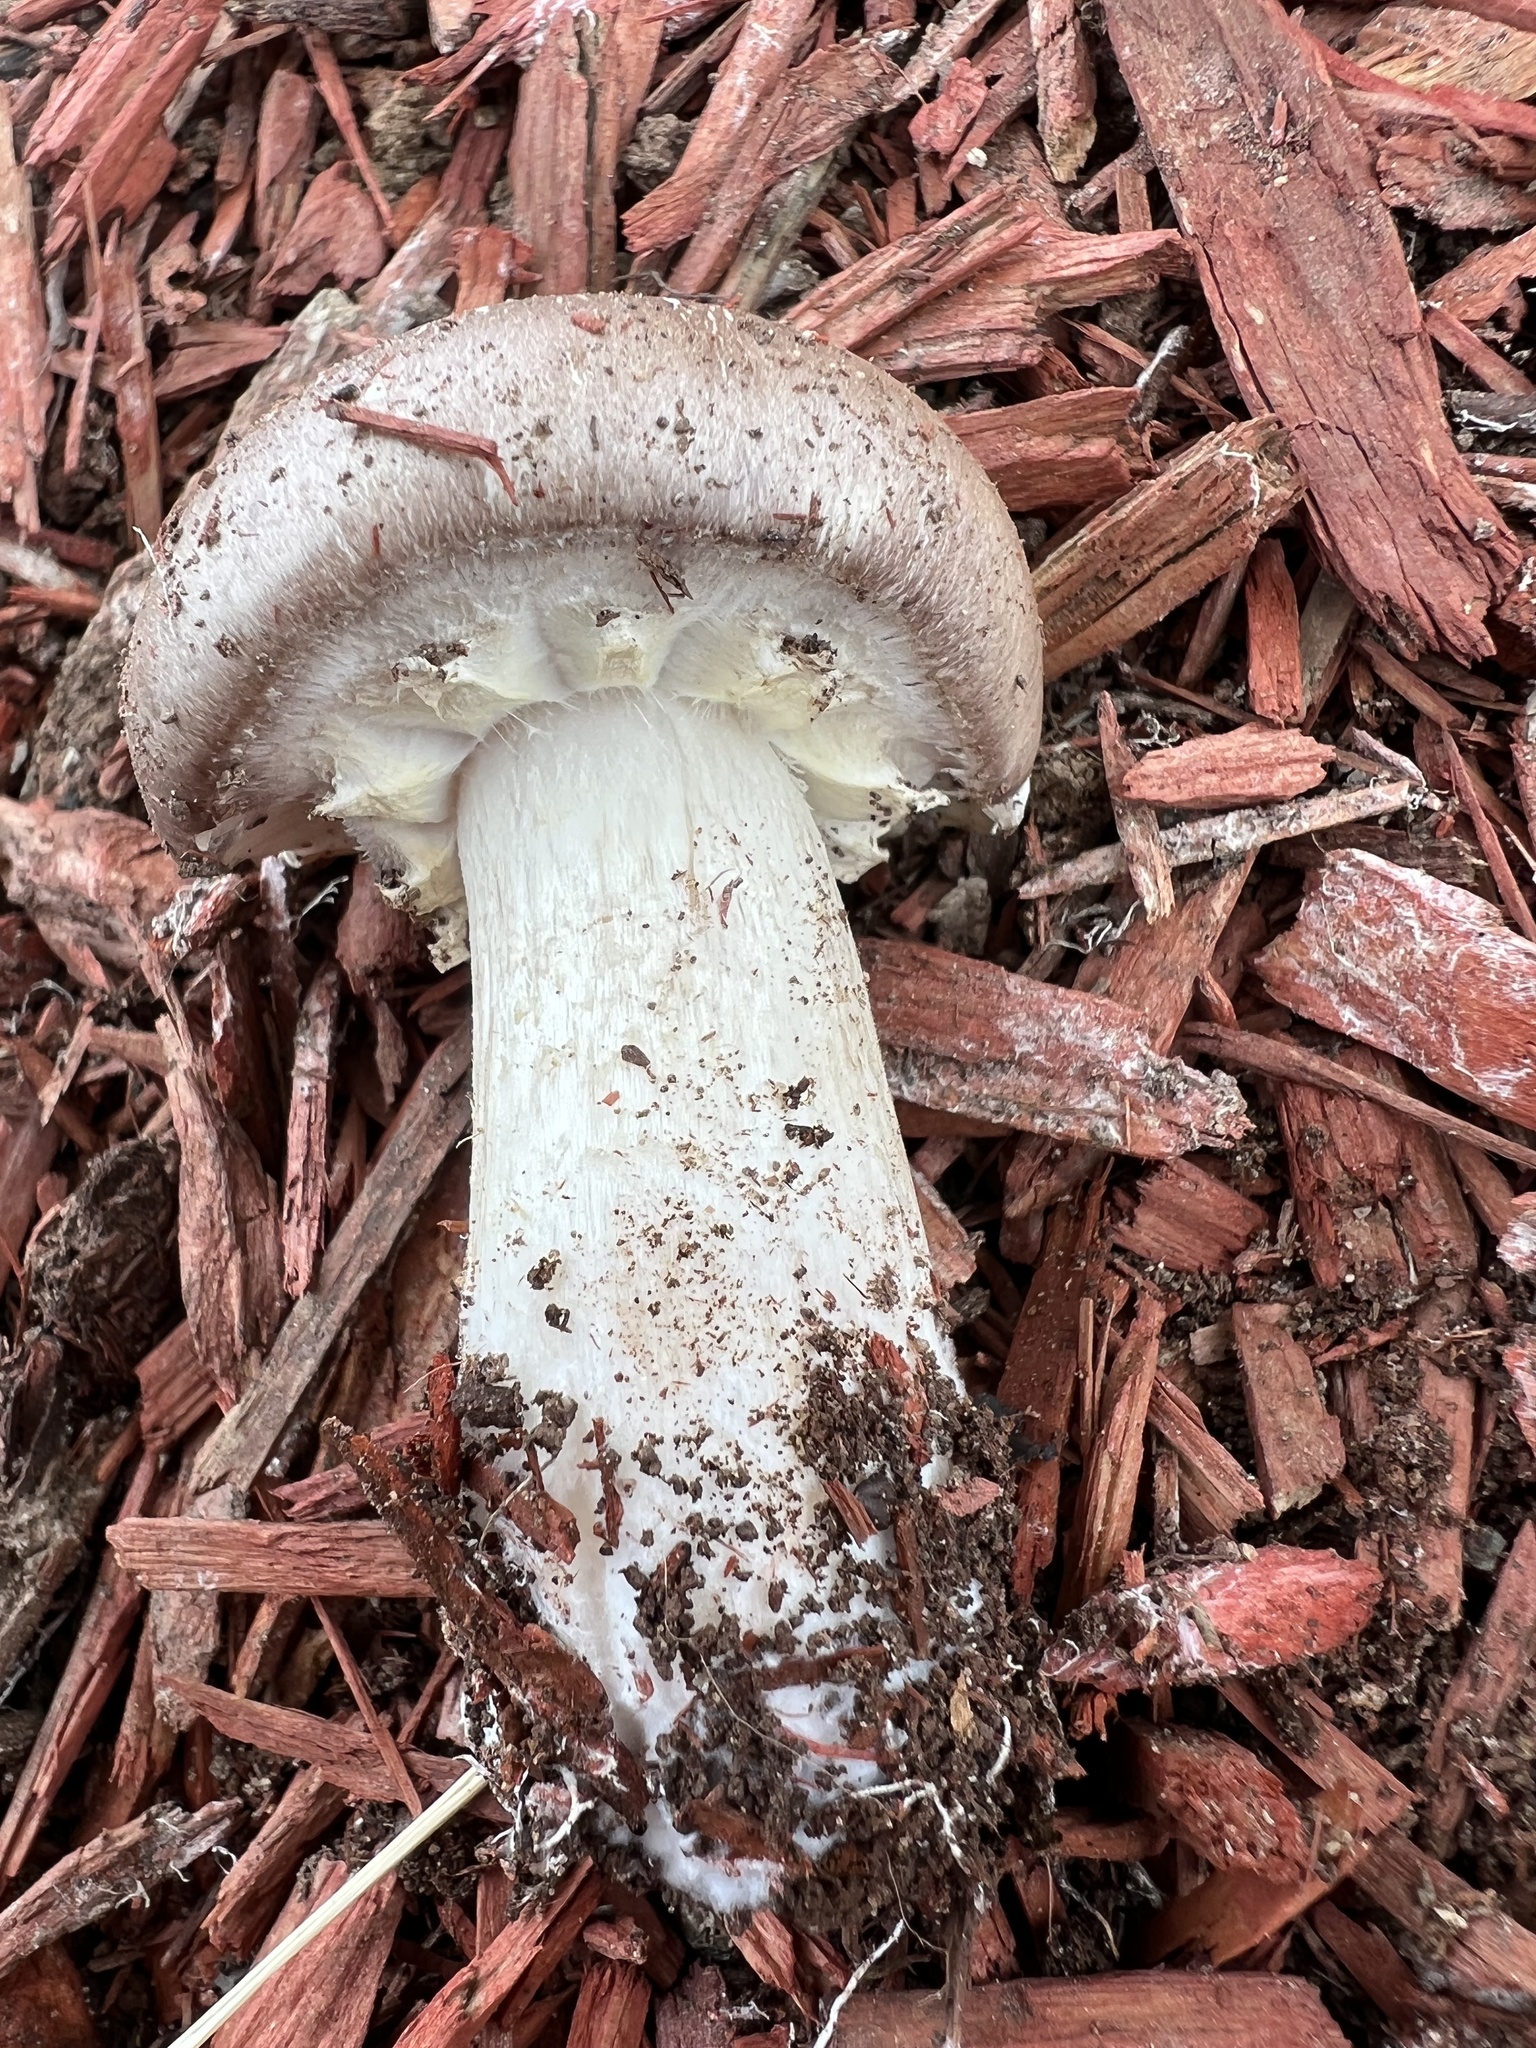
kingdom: Fungi
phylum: Basidiomycota
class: Agaricomycetes
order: Agaricales
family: Strophariaceae
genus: Stropharia
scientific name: Stropharia rugosoannulata
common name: Wine roundhead
